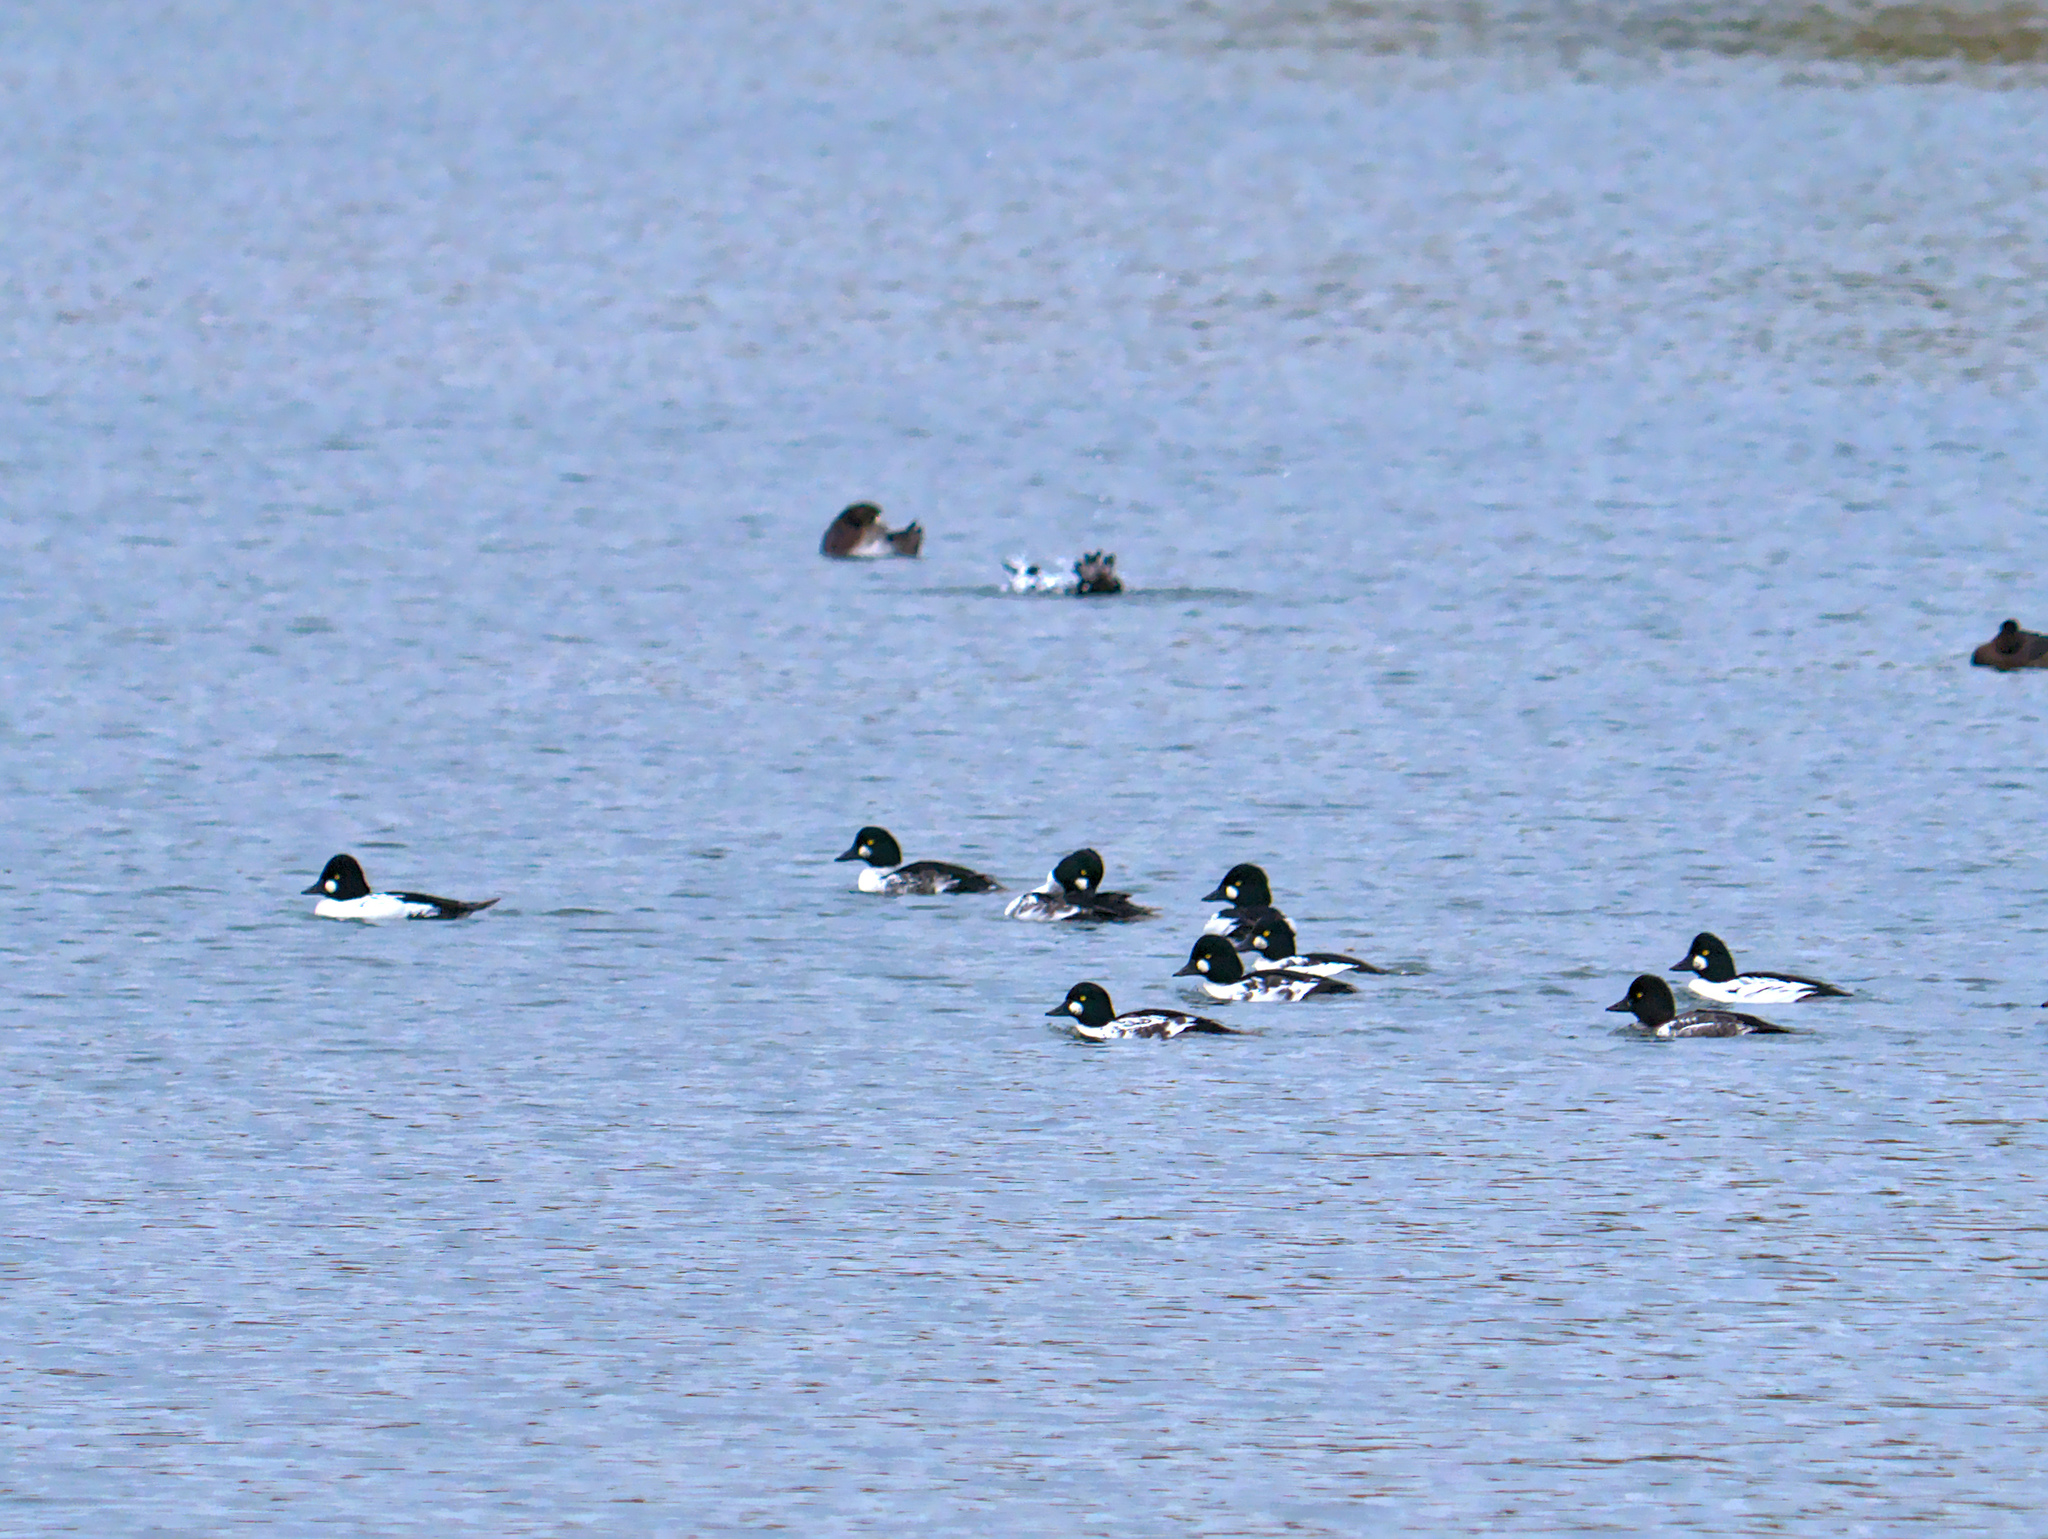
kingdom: Animalia
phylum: Chordata
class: Aves
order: Anseriformes
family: Anatidae
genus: Bucephala
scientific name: Bucephala clangula
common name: Common goldeneye
